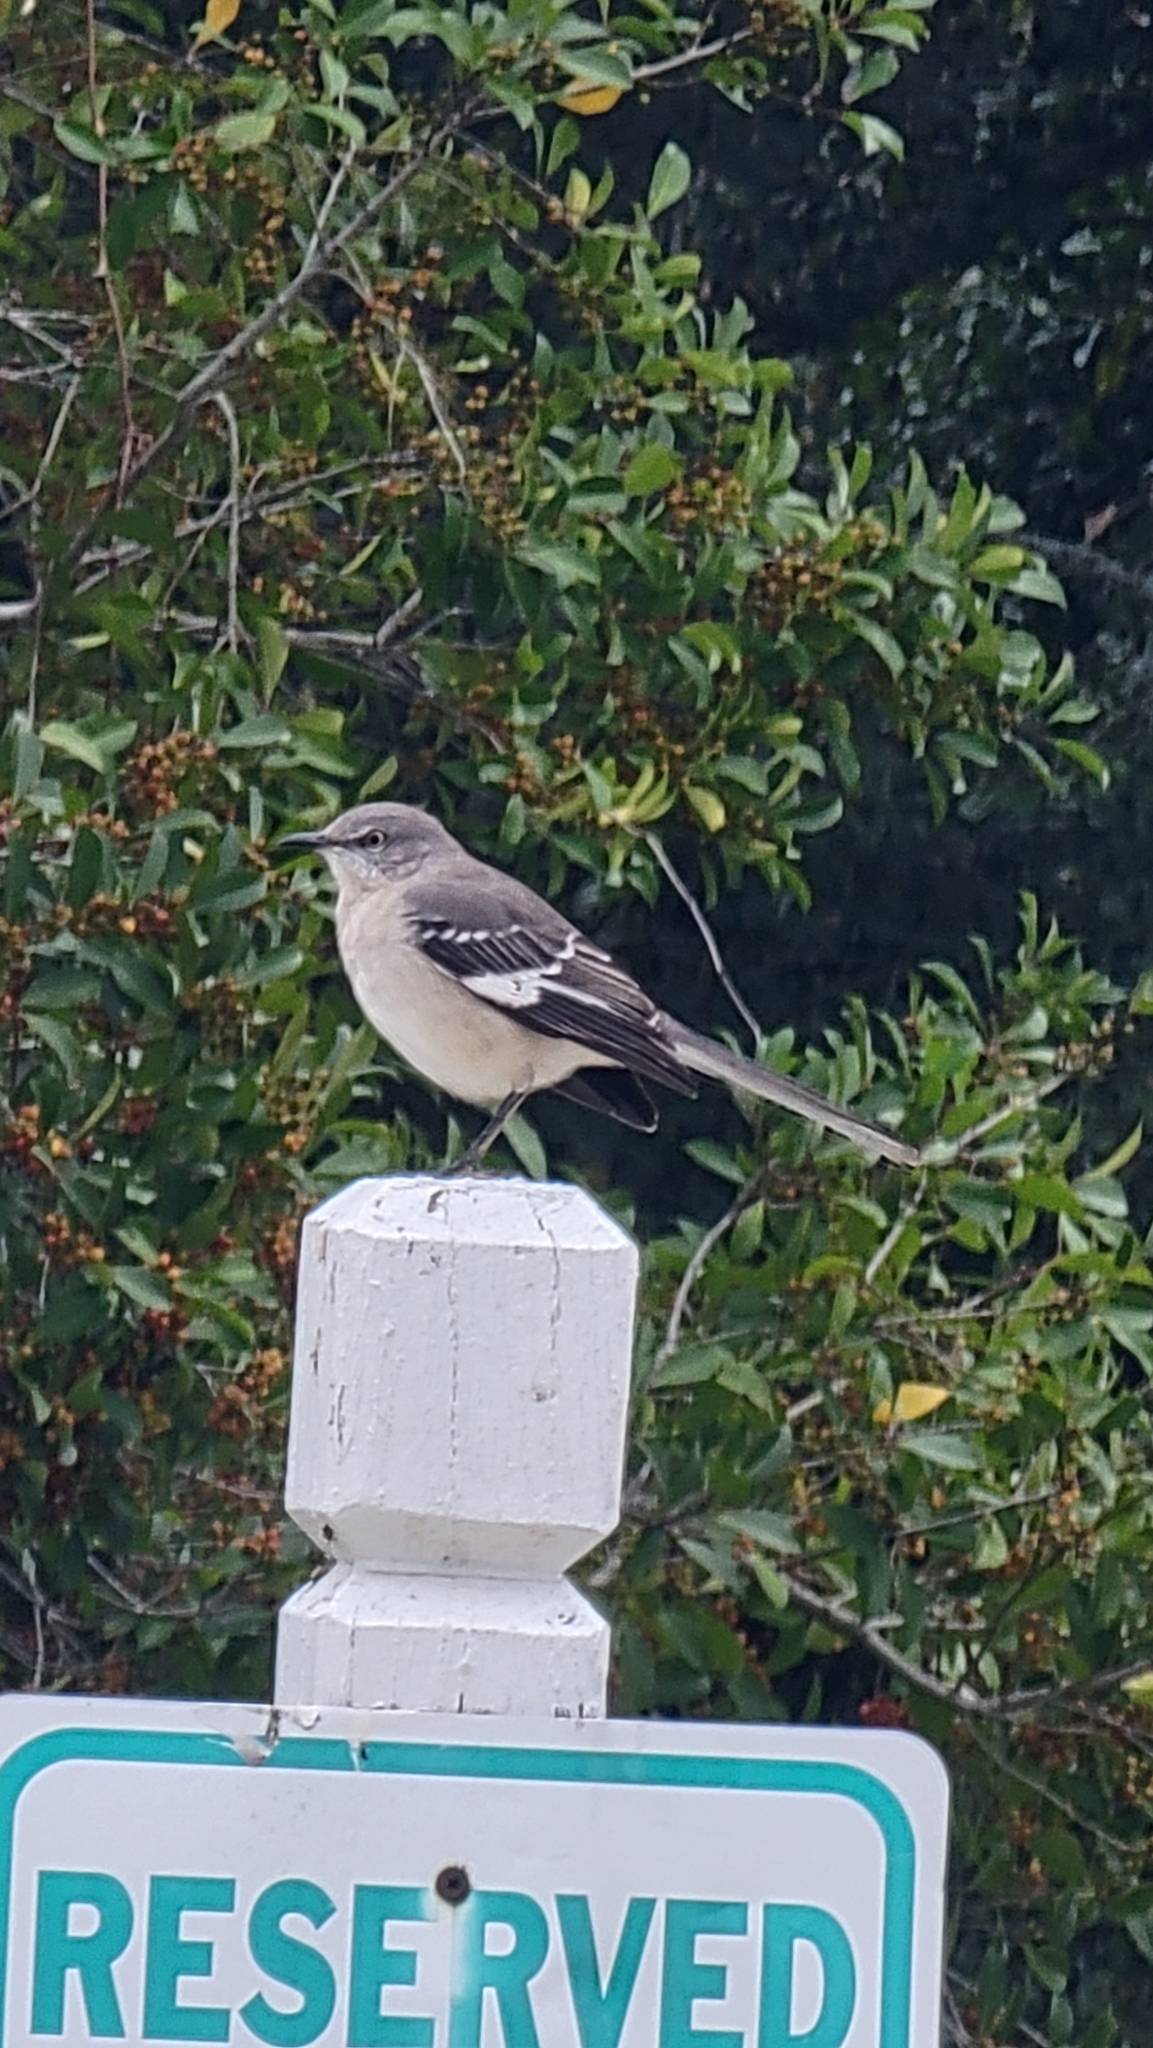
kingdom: Animalia
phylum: Chordata
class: Aves
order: Passeriformes
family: Mimidae
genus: Mimus
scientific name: Mimus polyglottos
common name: Northern mockingbird
